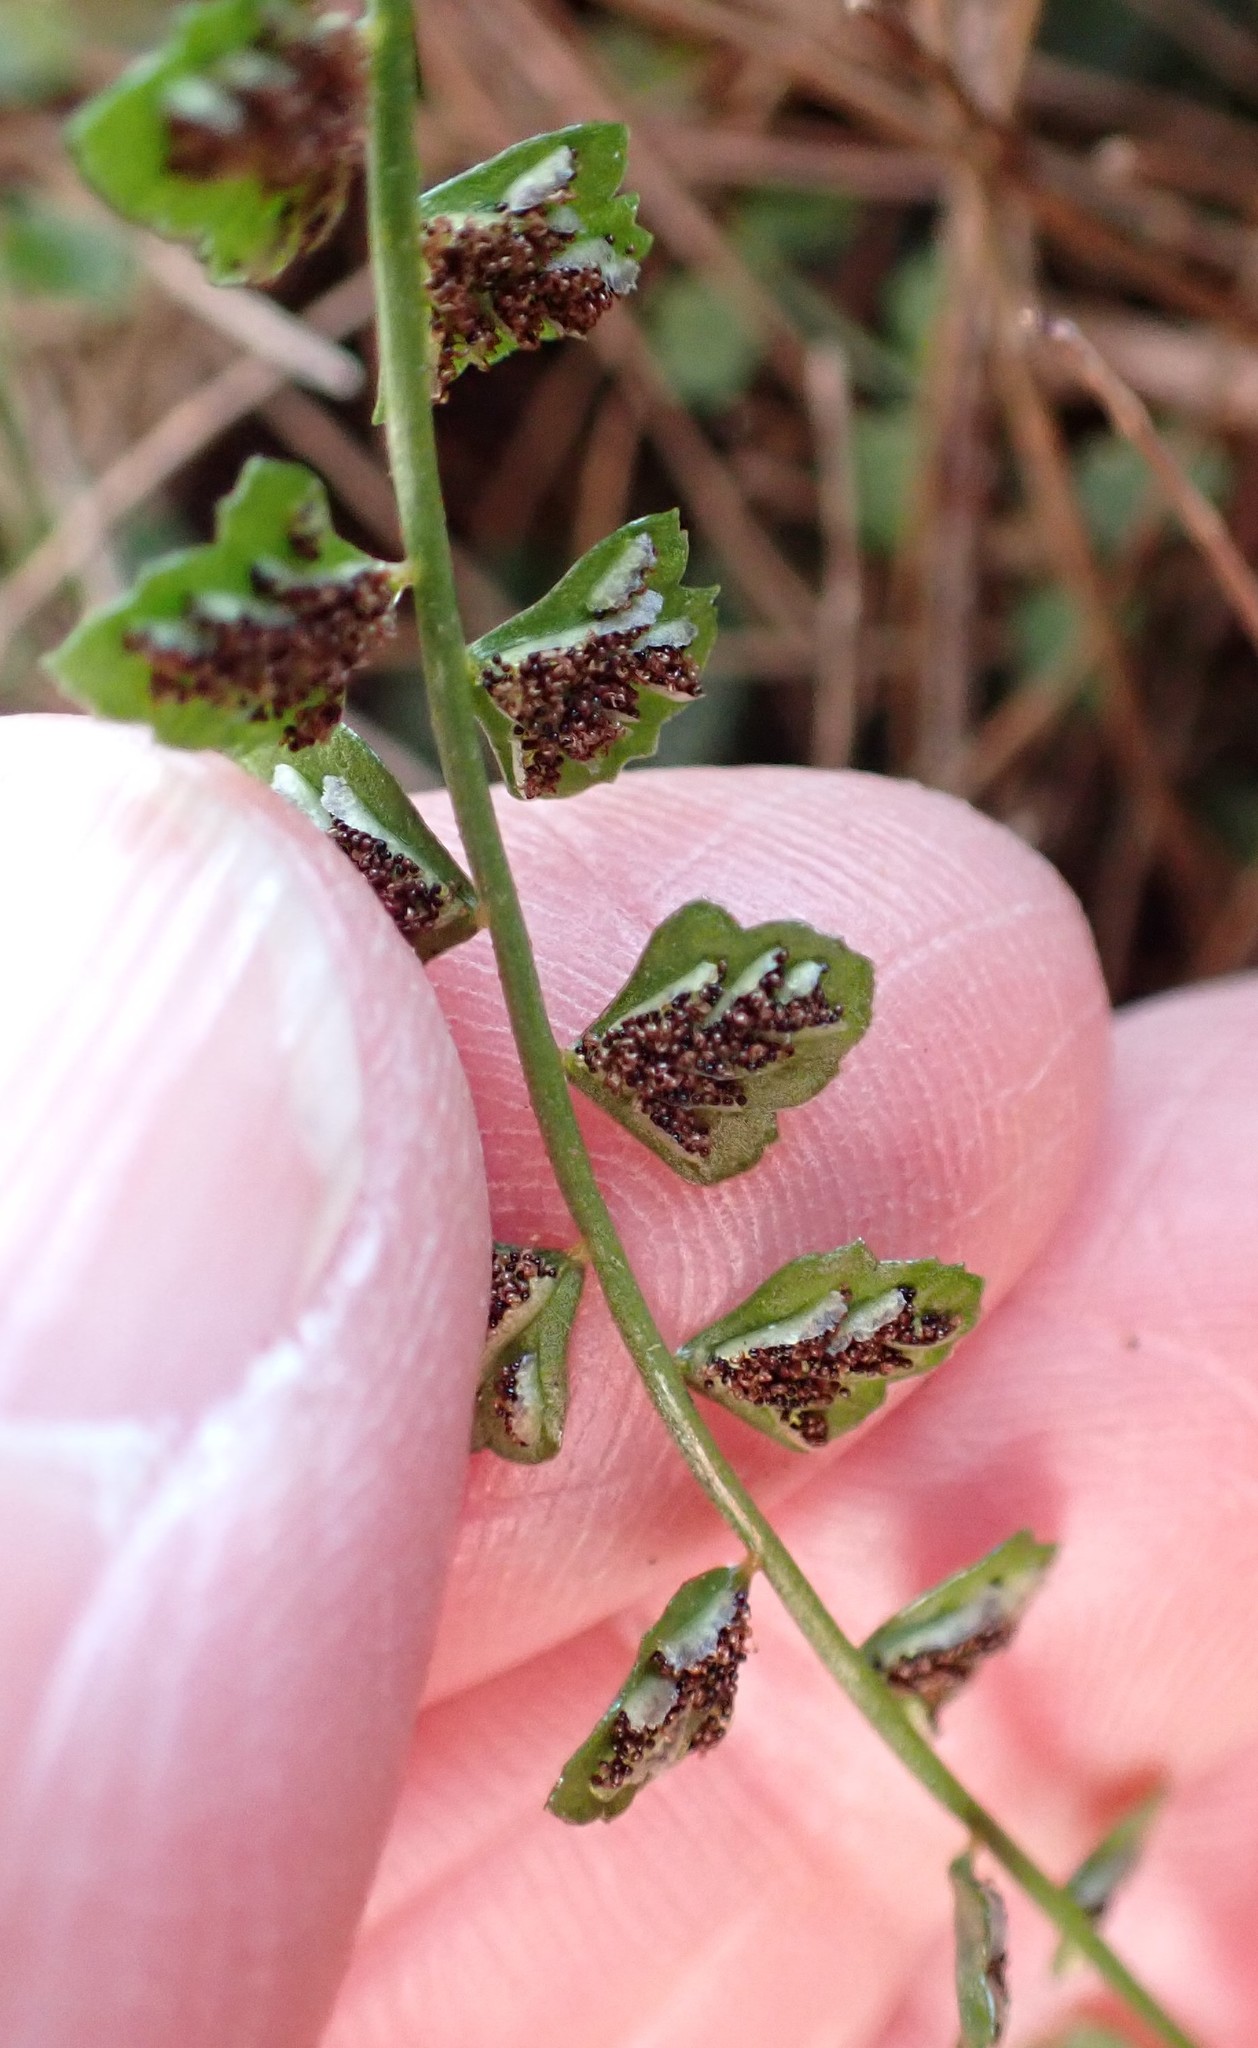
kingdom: Plantae
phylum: Tracheophyta
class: Polypodiopsida
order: Polypodiales
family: Aspleniaceae
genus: Asplenium
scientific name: Asplenium flabellifolium
